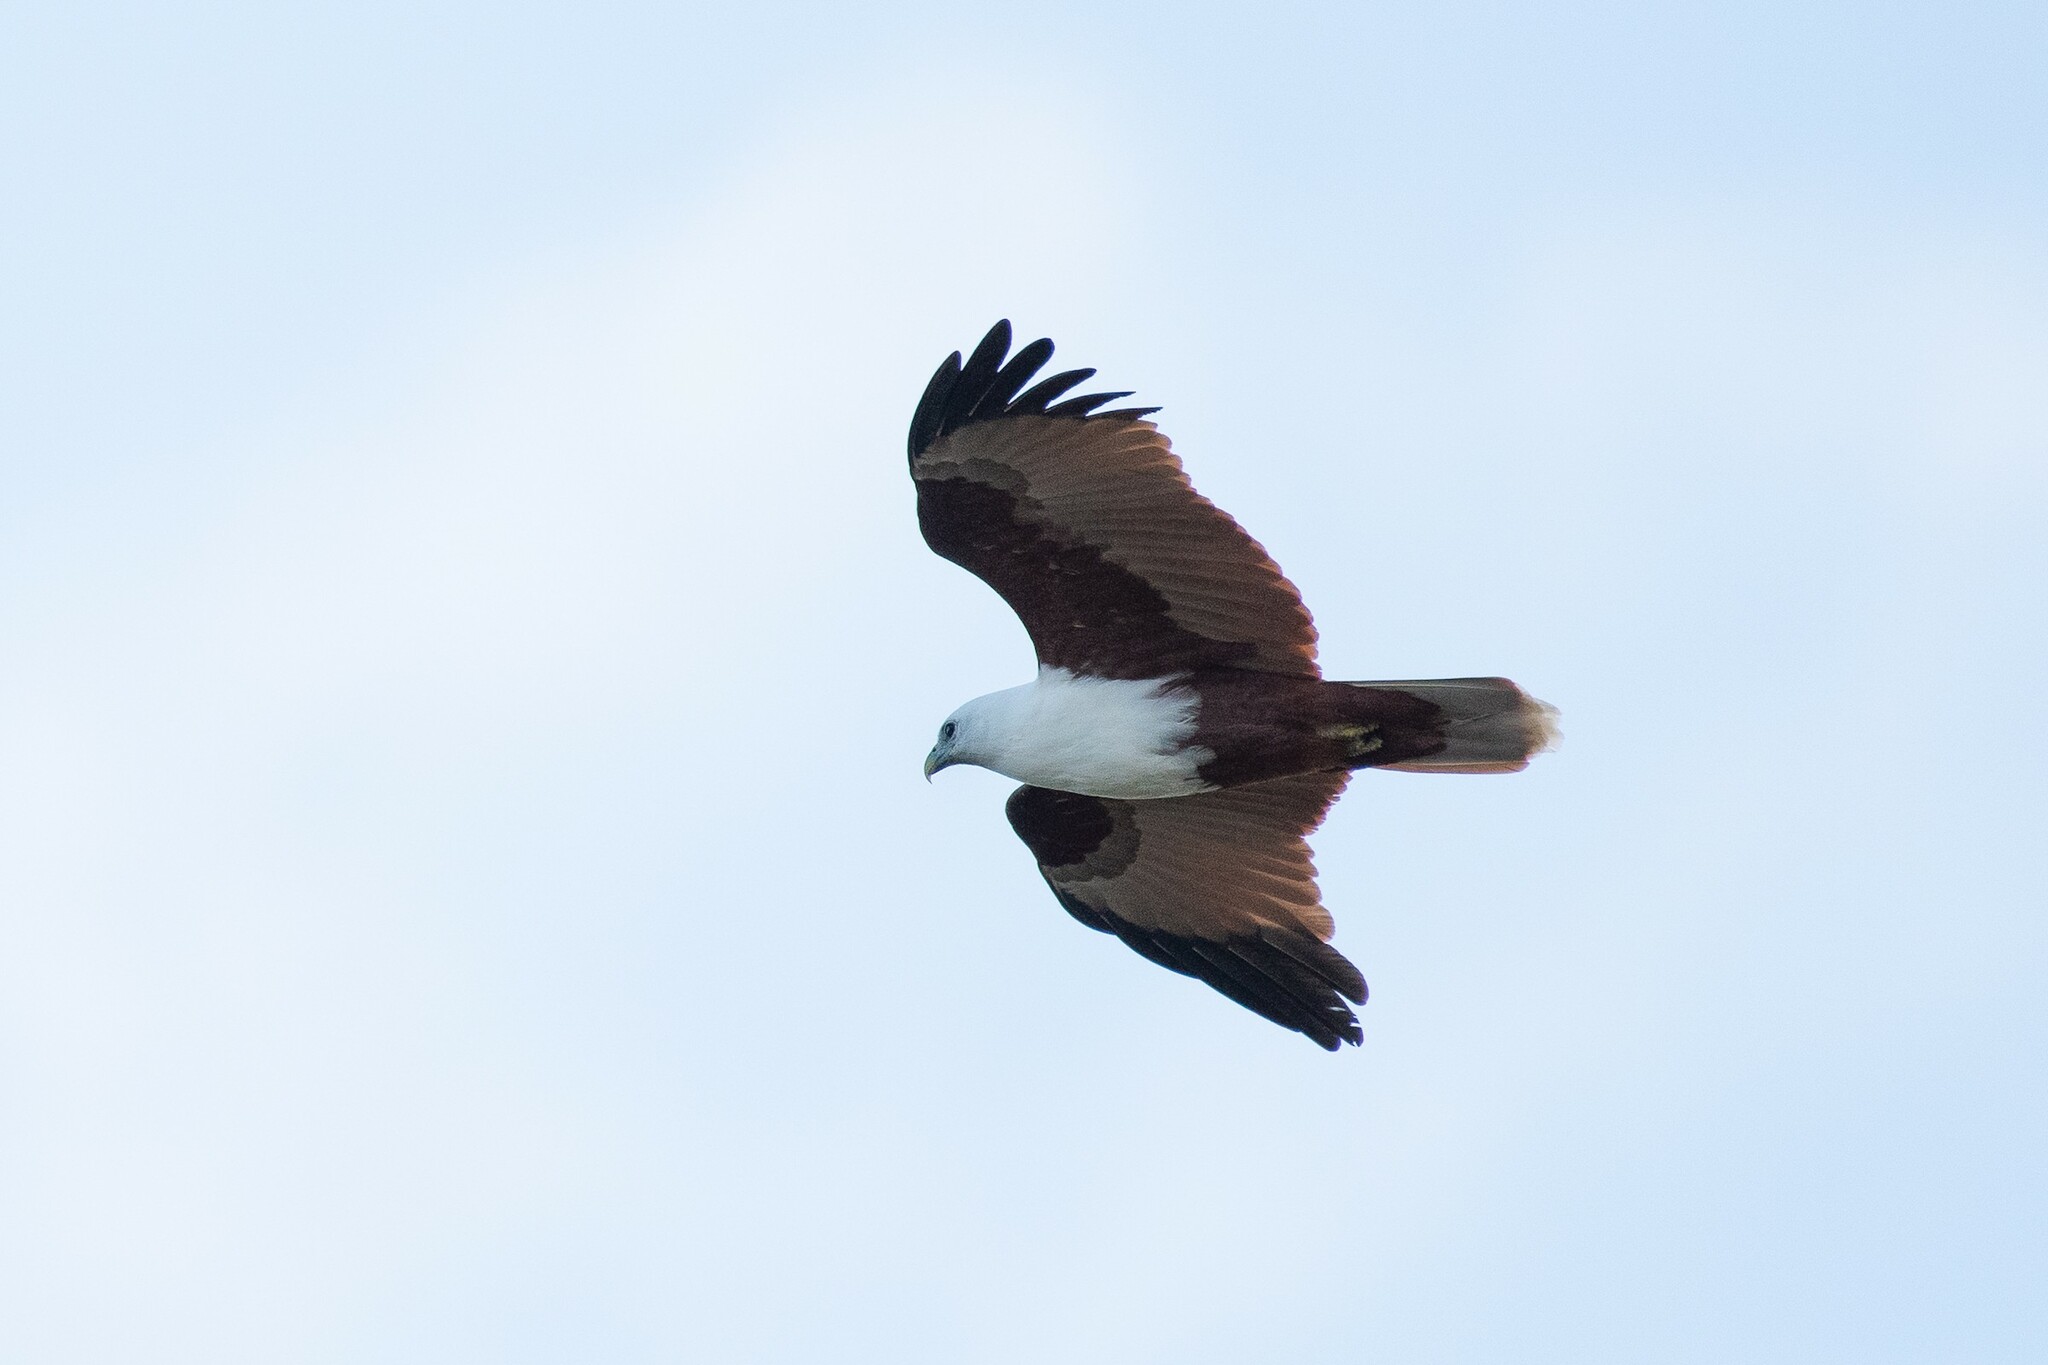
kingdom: Animalia
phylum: Chordata
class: Aves
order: Accipitriformes
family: Accipitridae
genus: Haliastur
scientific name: Haliastur indus
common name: Brahminy kite
